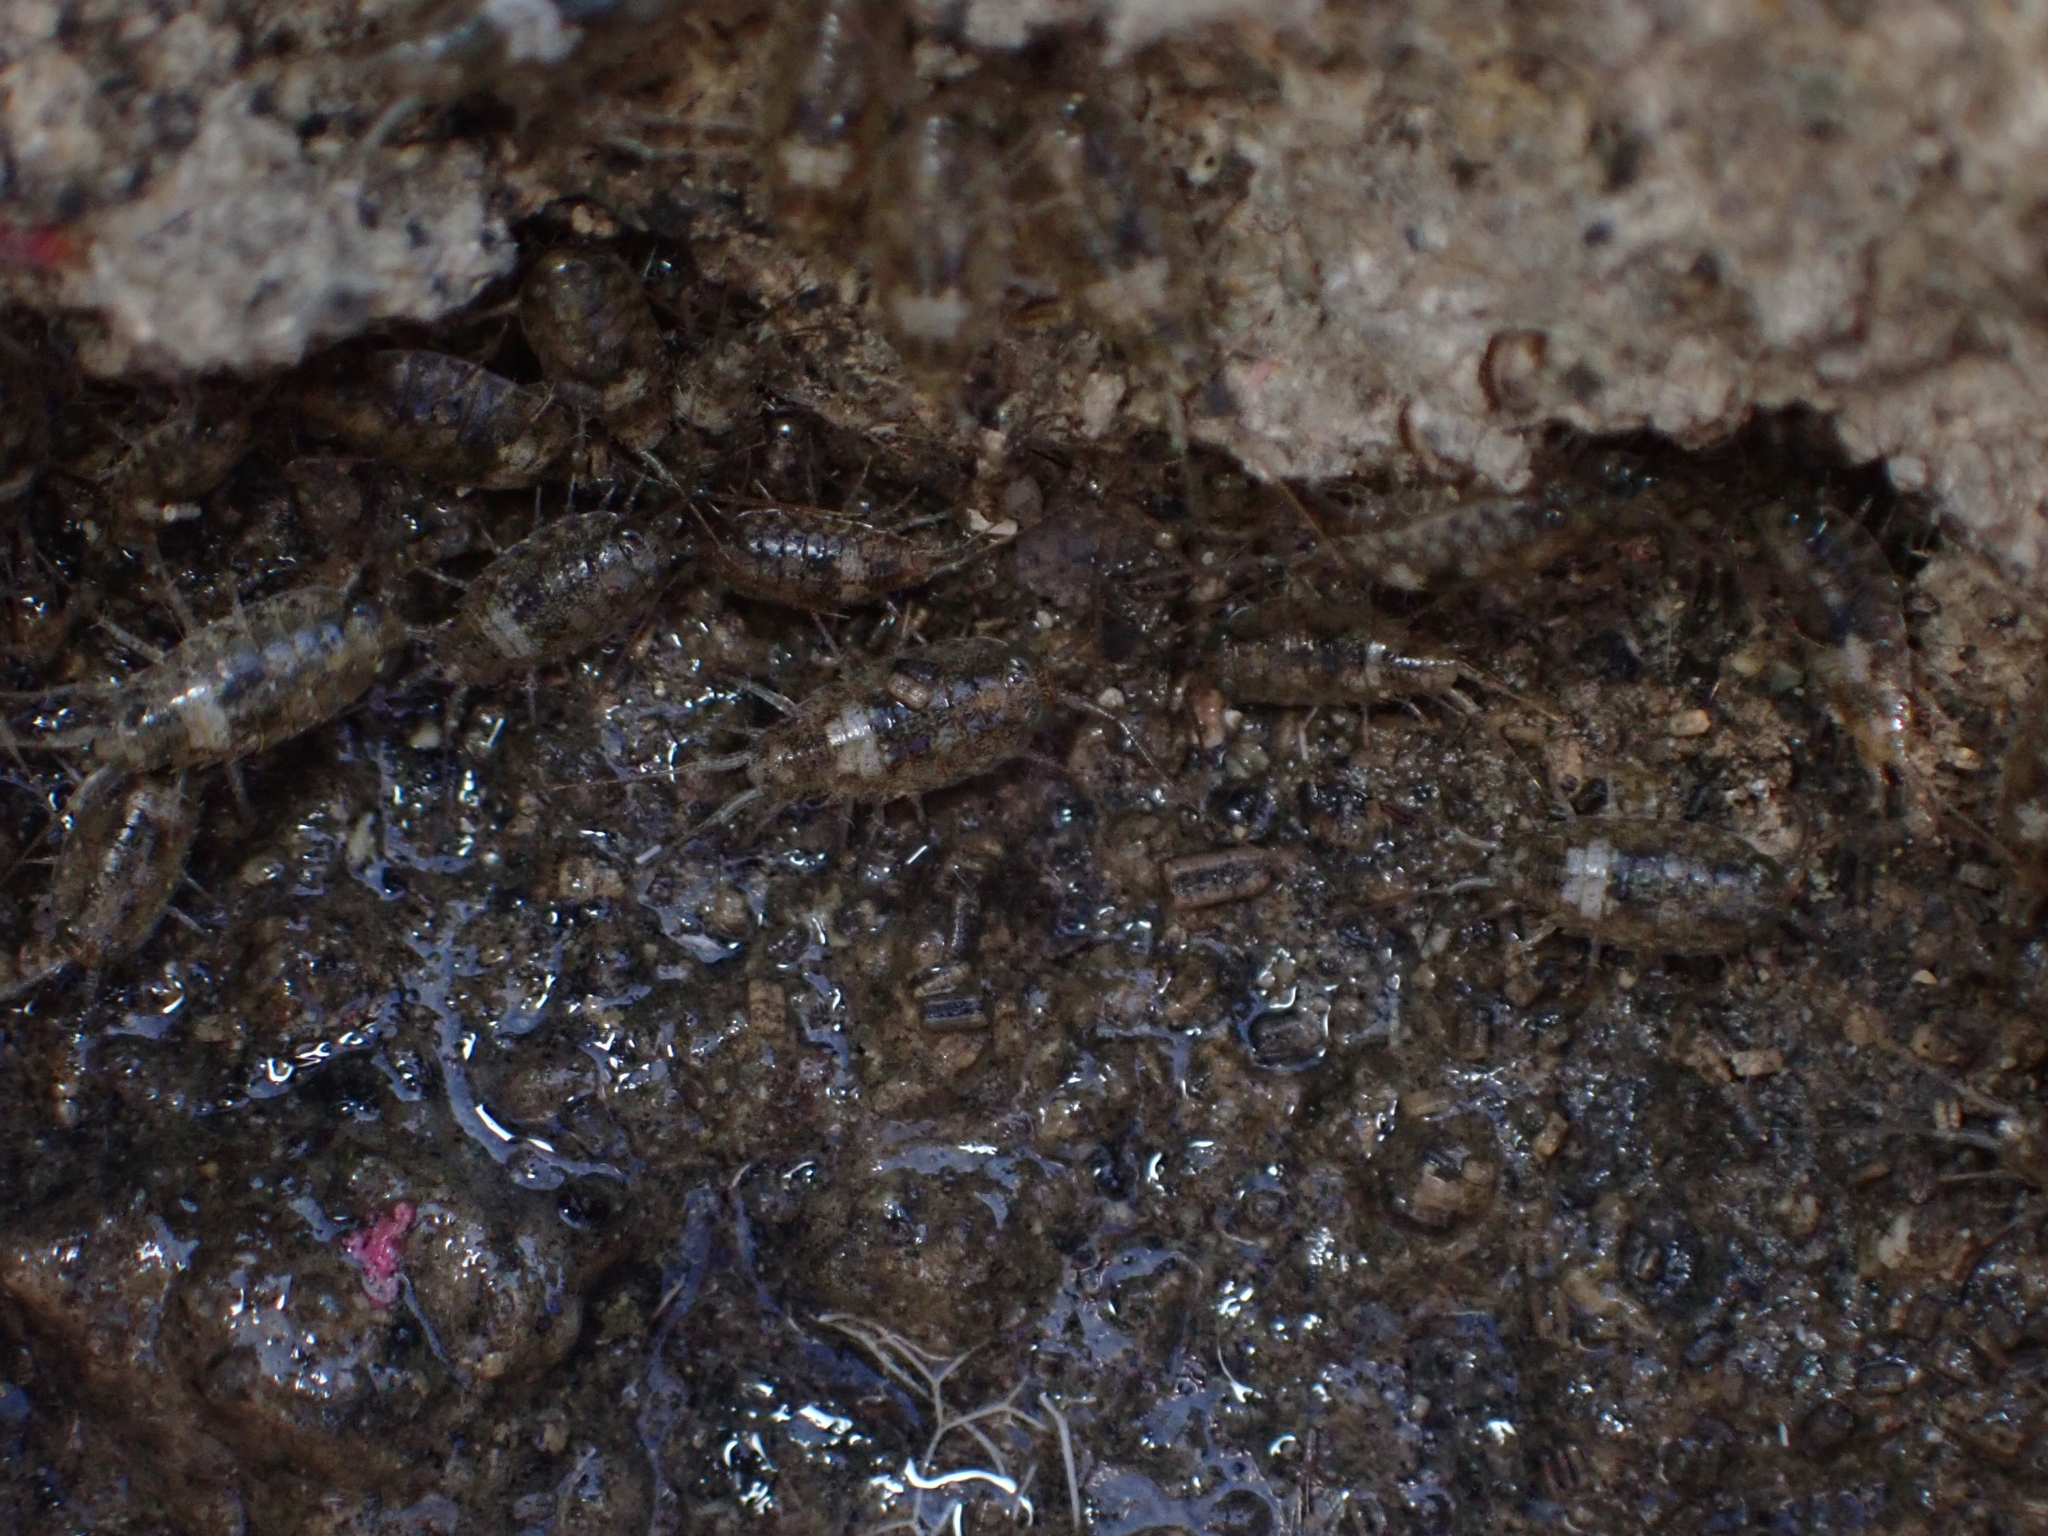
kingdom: Animalia
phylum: Arthropoda
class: Malacostraca
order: Isopoda
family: Ligiidae
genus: Ligia
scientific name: Ligia italica
